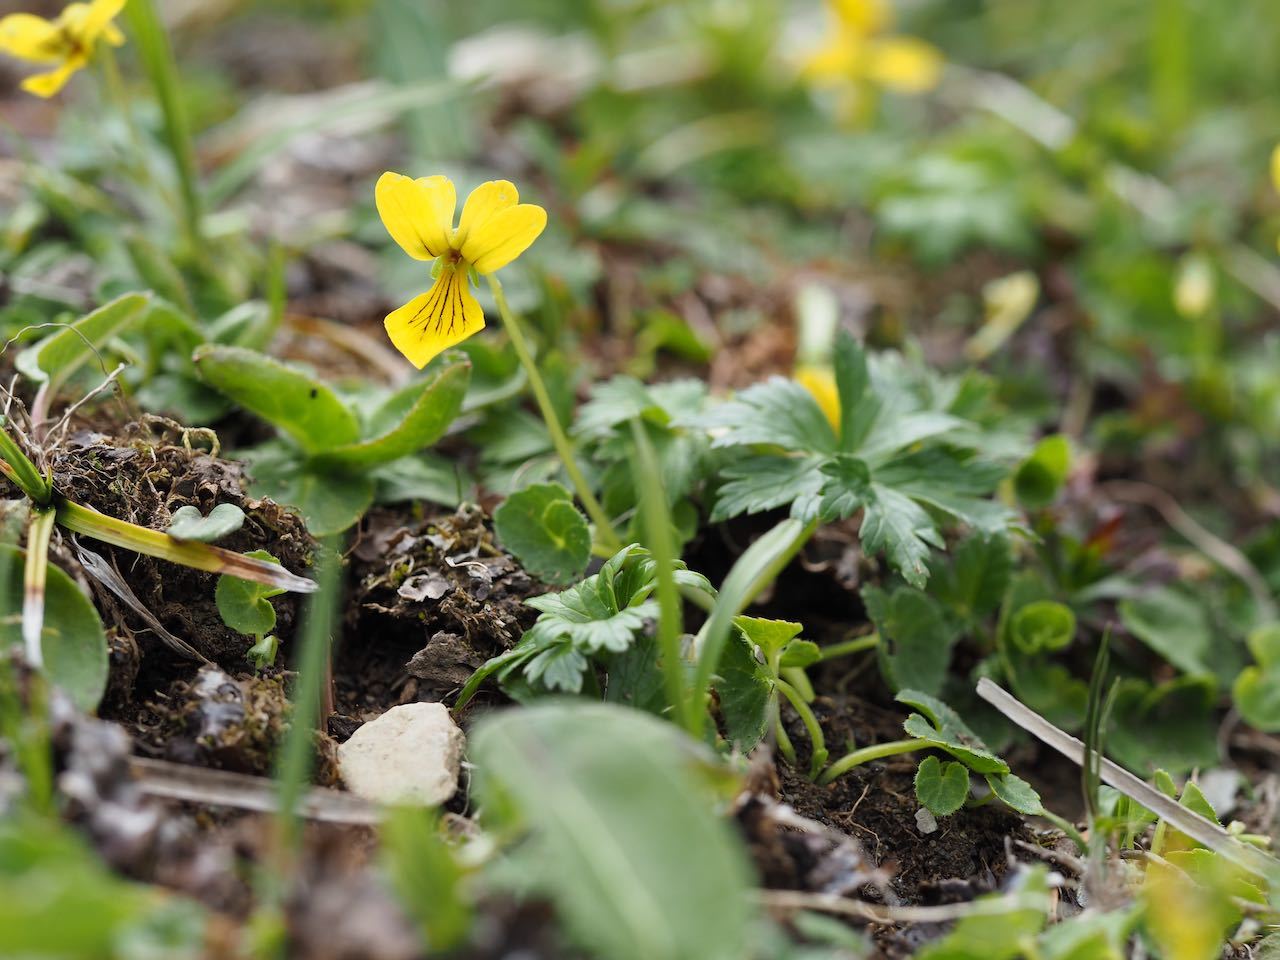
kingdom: Plantae
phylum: Tracheophyta
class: Magnoliopsida
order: Malpighiales
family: Violaceae
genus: Viola
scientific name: Viola biflora
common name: Alpine yellow violet
